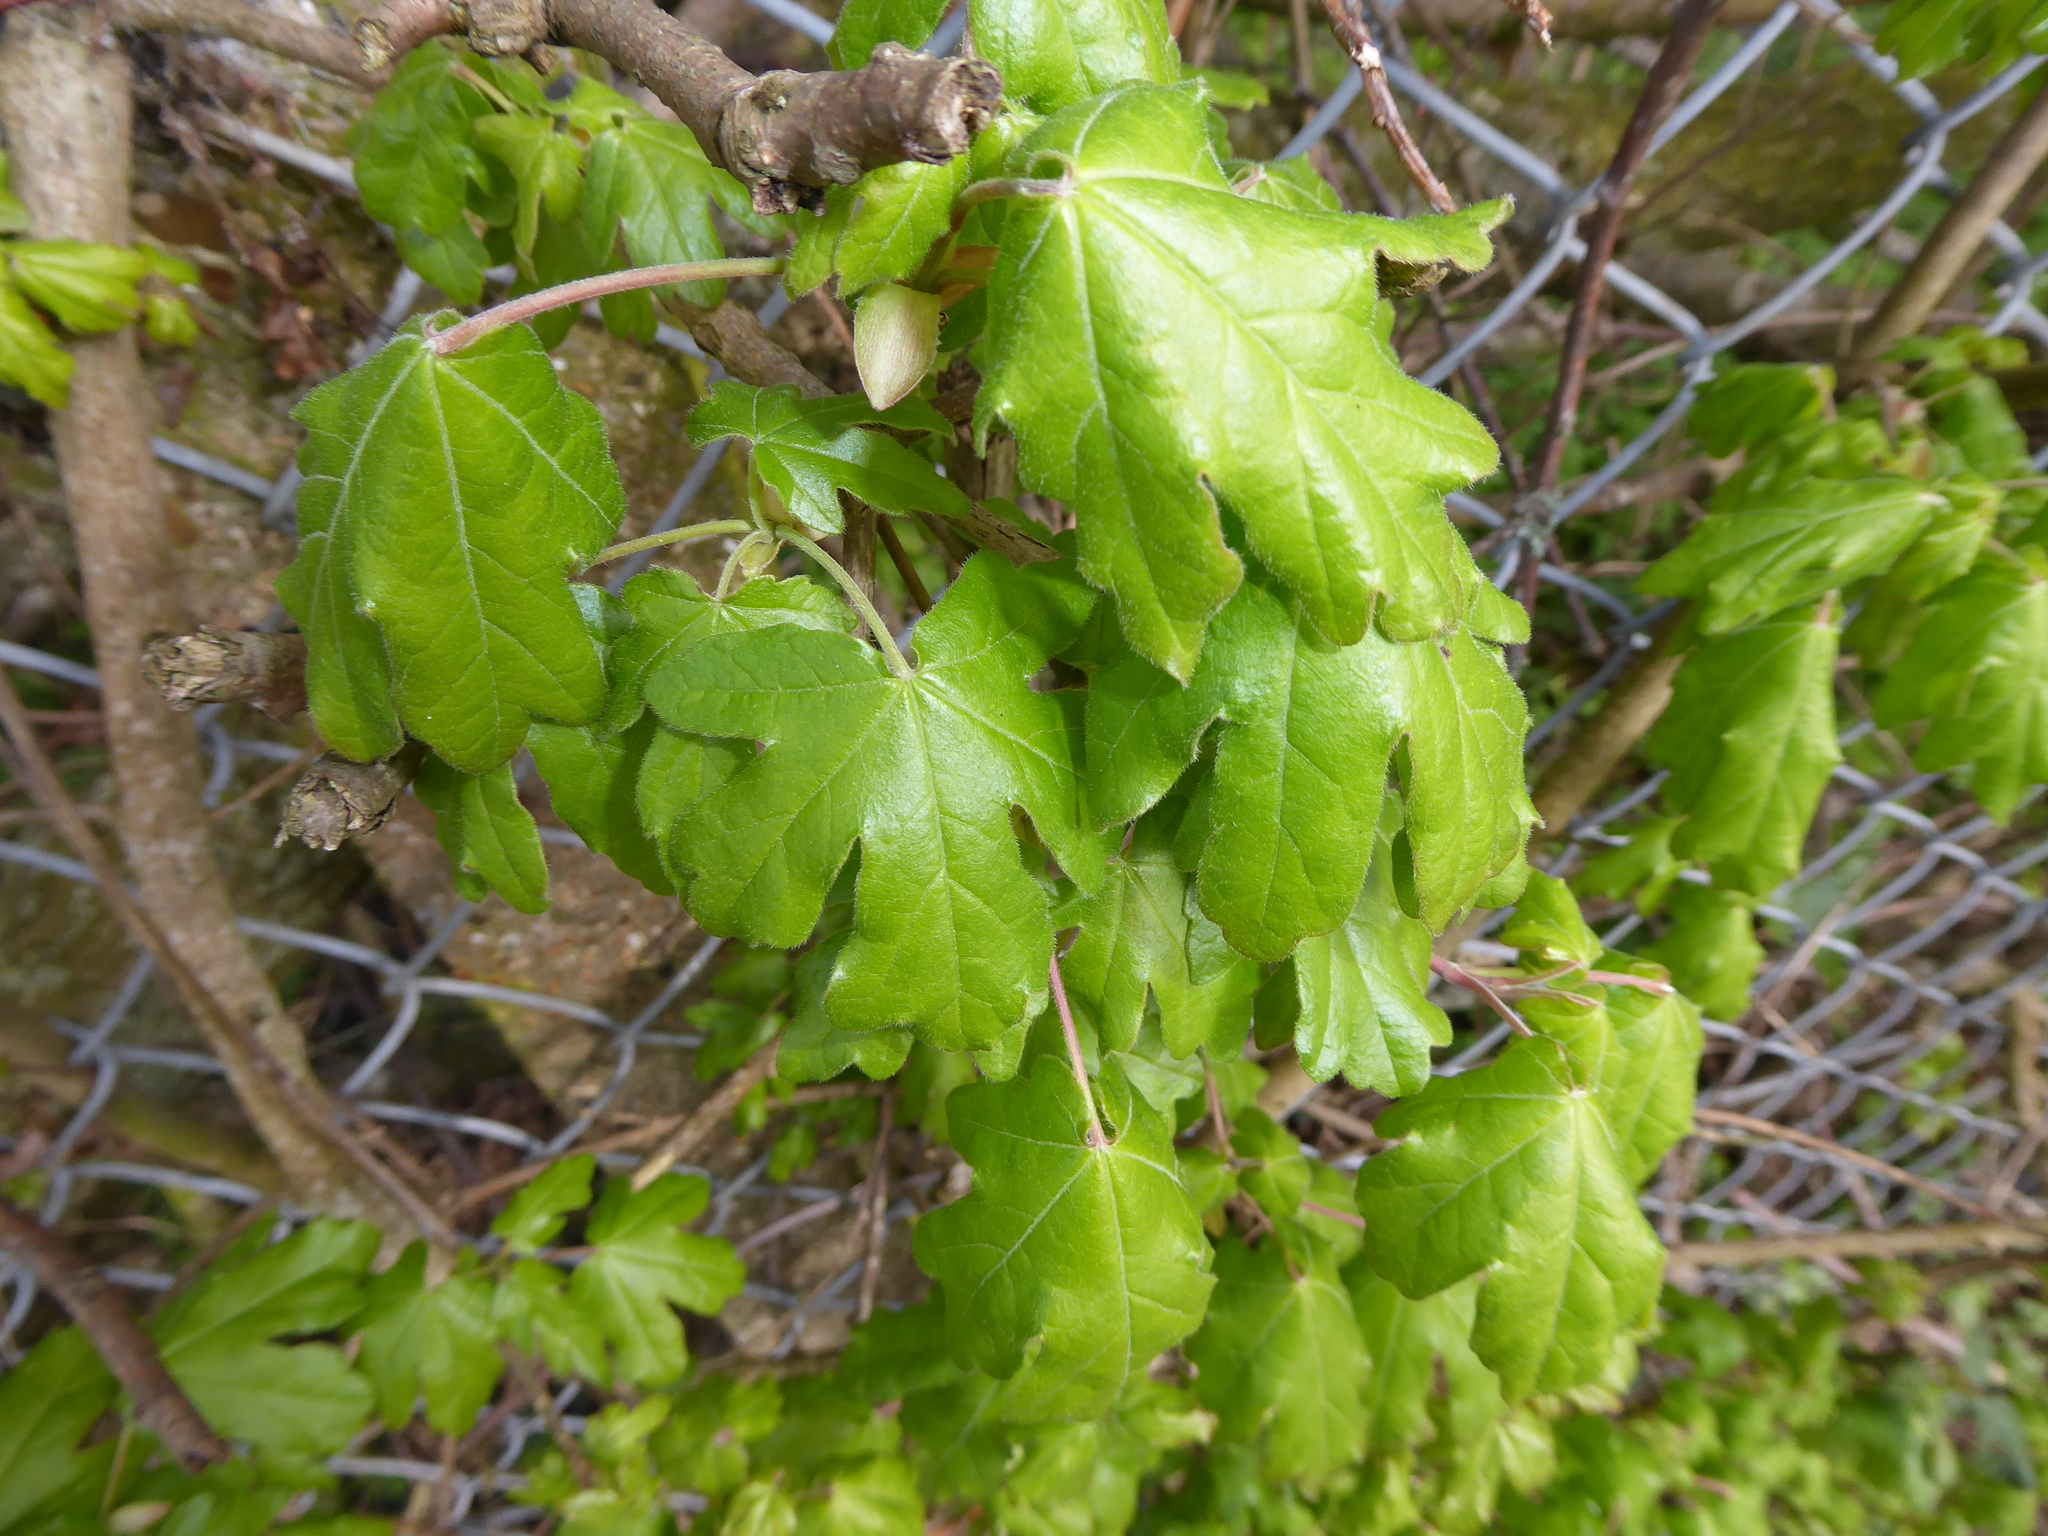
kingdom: Plantae
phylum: Tracheophyta
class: Magnoliopsida
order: Sapindales
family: Sapindaceae
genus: Acer
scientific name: Acer campestre
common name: Field maple
